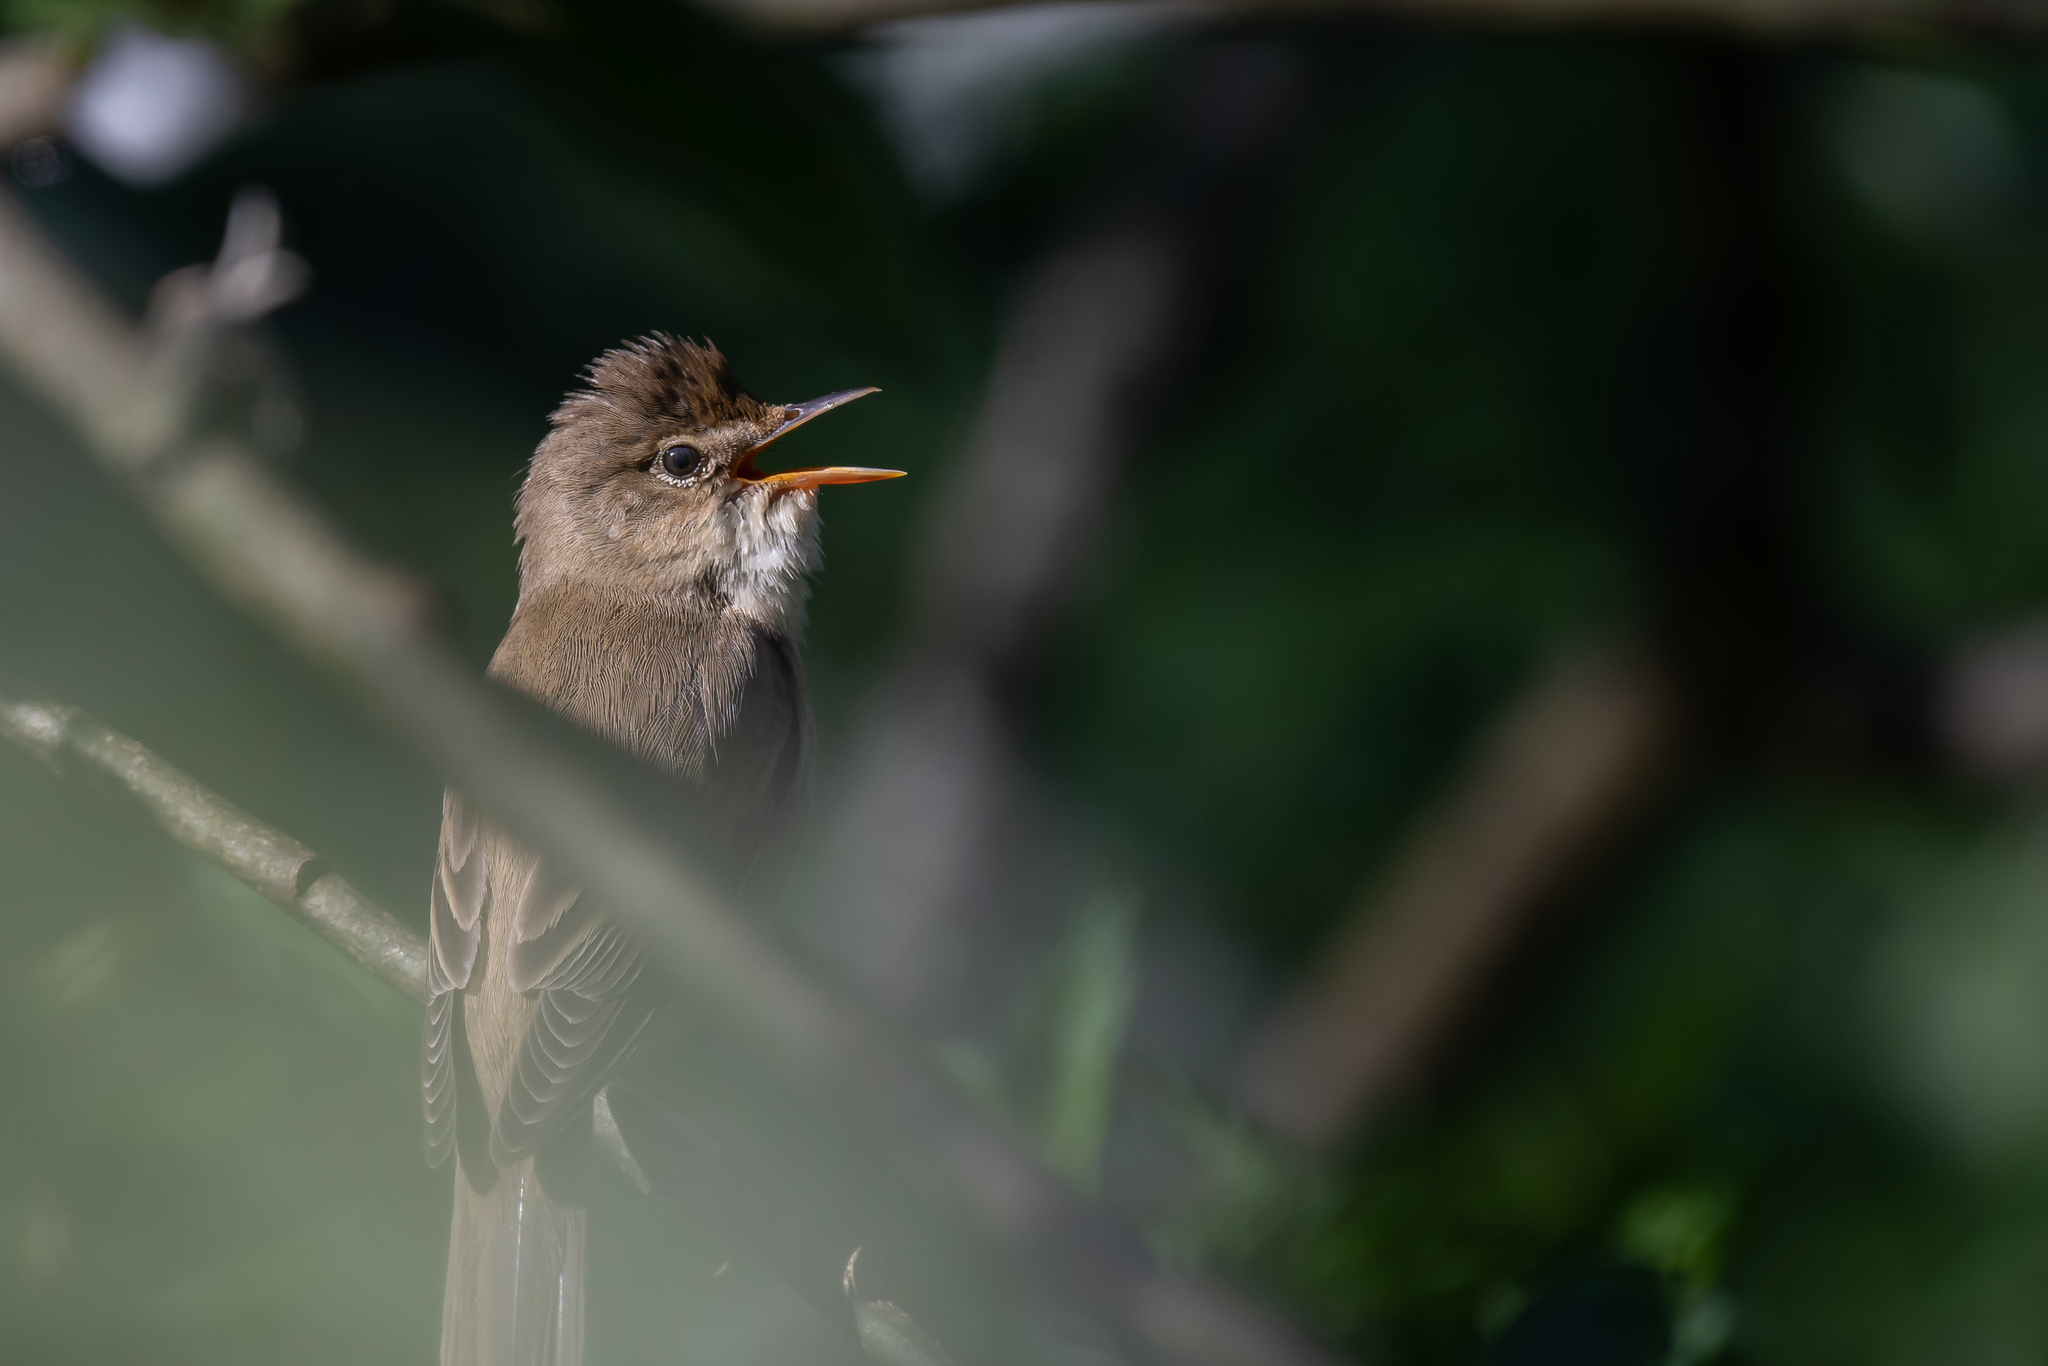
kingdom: Animalia
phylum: Chordata
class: Aves
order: Passeriformes
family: Acrocephalidae
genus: Acrocephalus
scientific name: Acrocephalus palustris
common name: Marsh warbler
